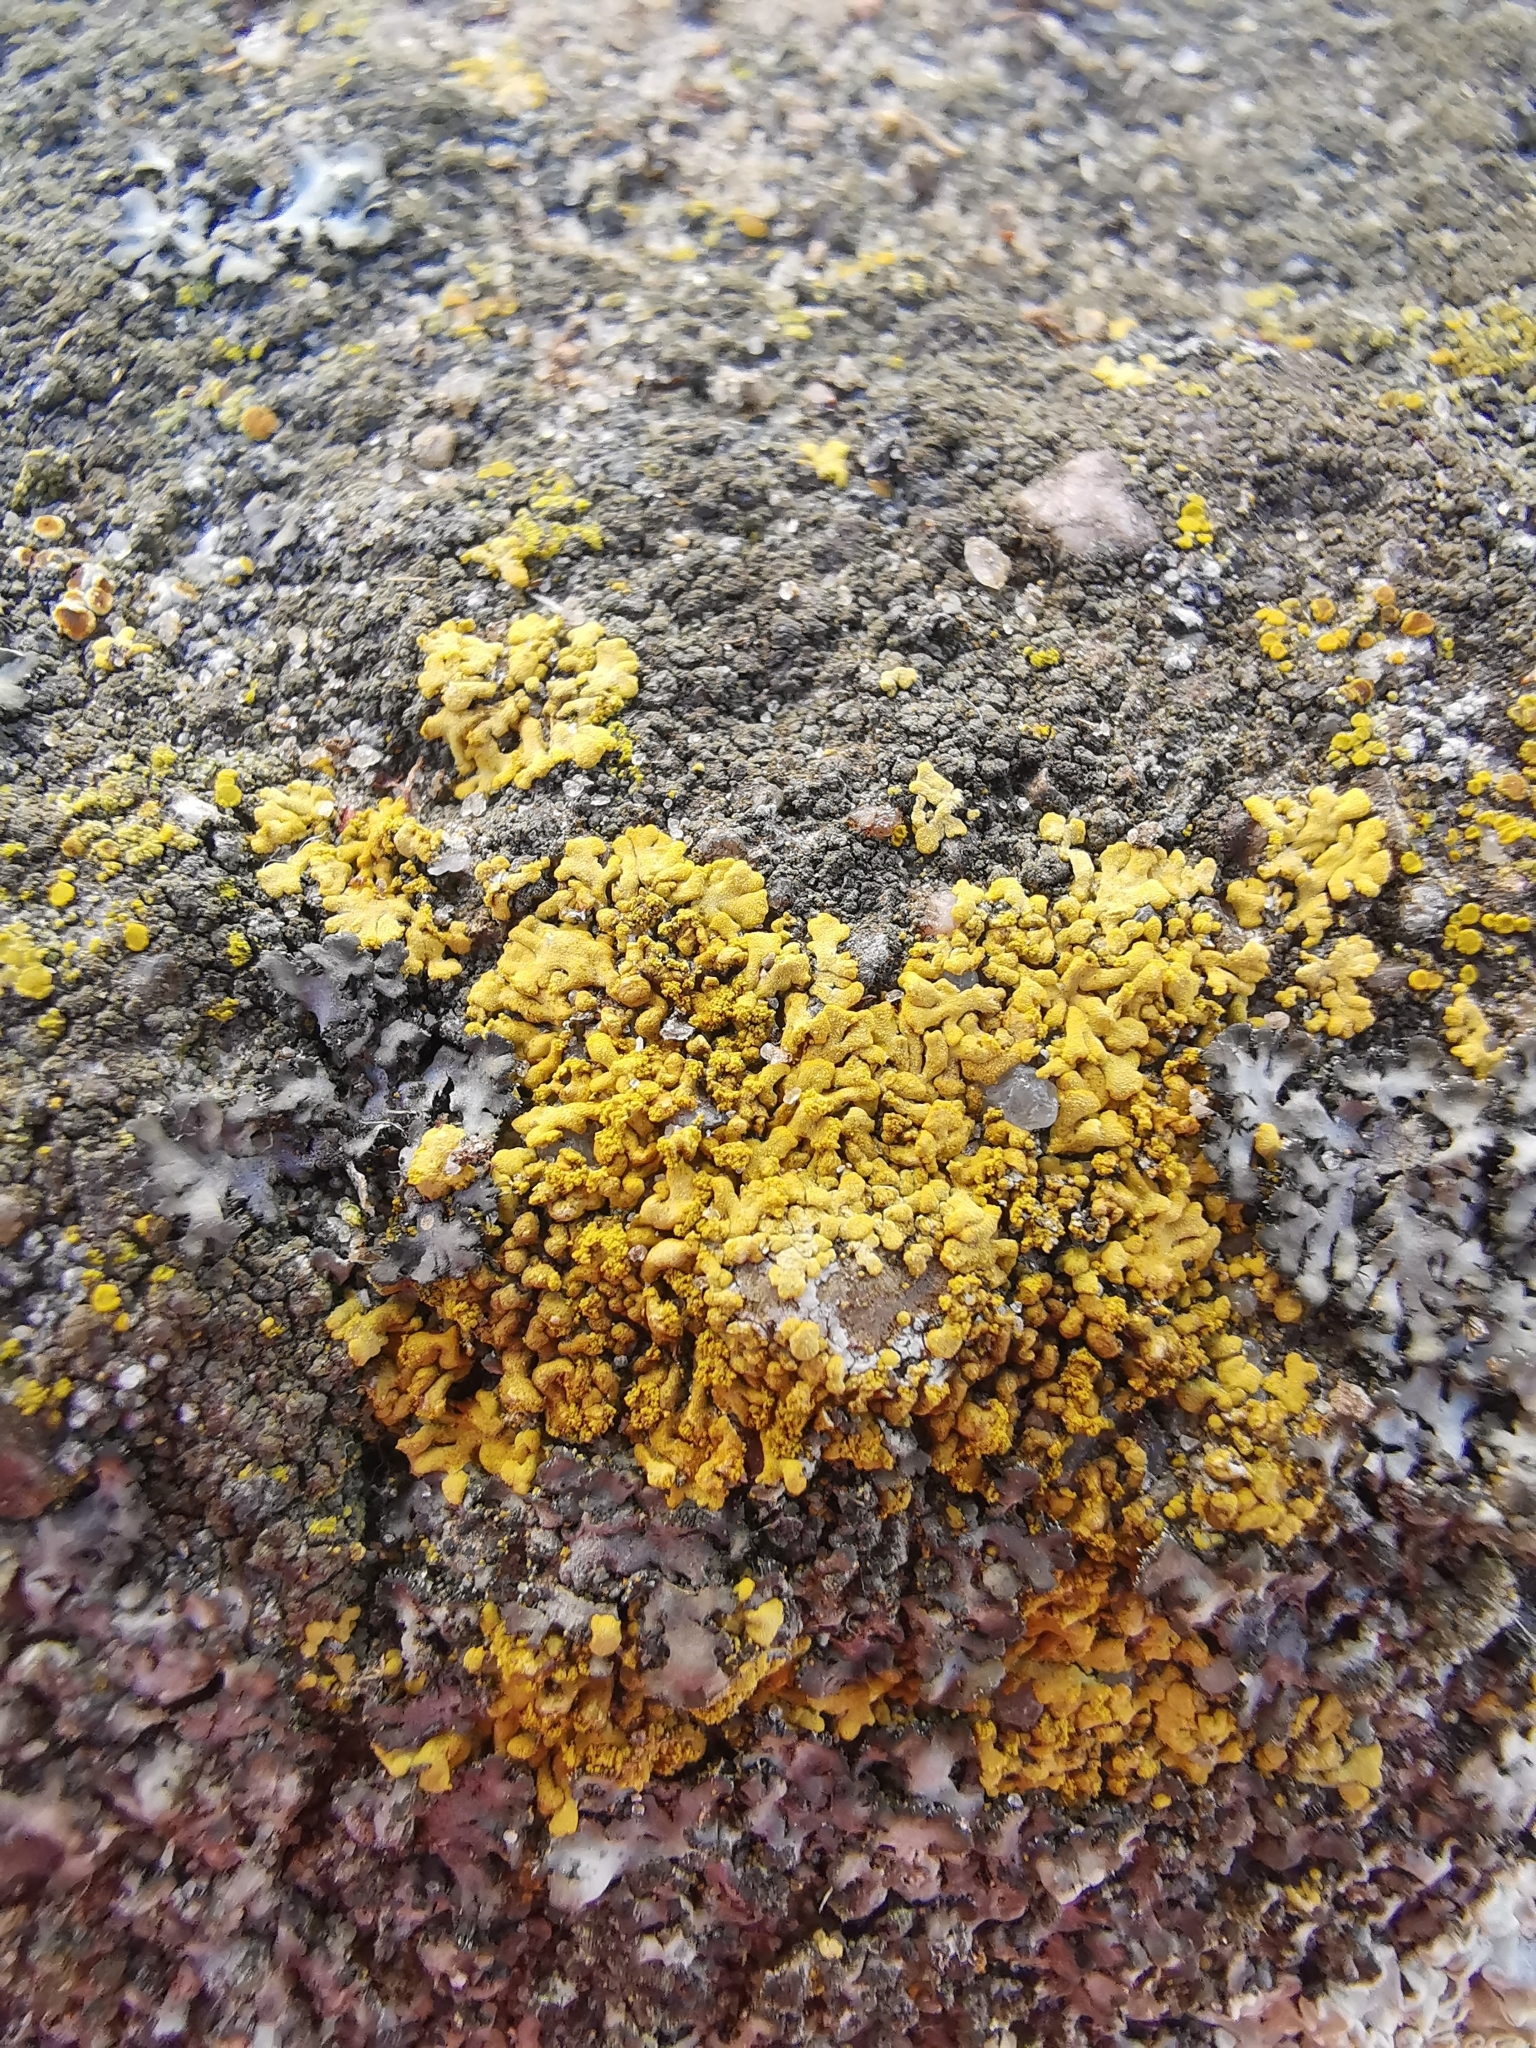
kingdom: Fungi
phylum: Ascomycota
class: Lecanoromycetes
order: Teloschistales
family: Teloschistaceae
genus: Calogaya
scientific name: Calogaya decipiens
